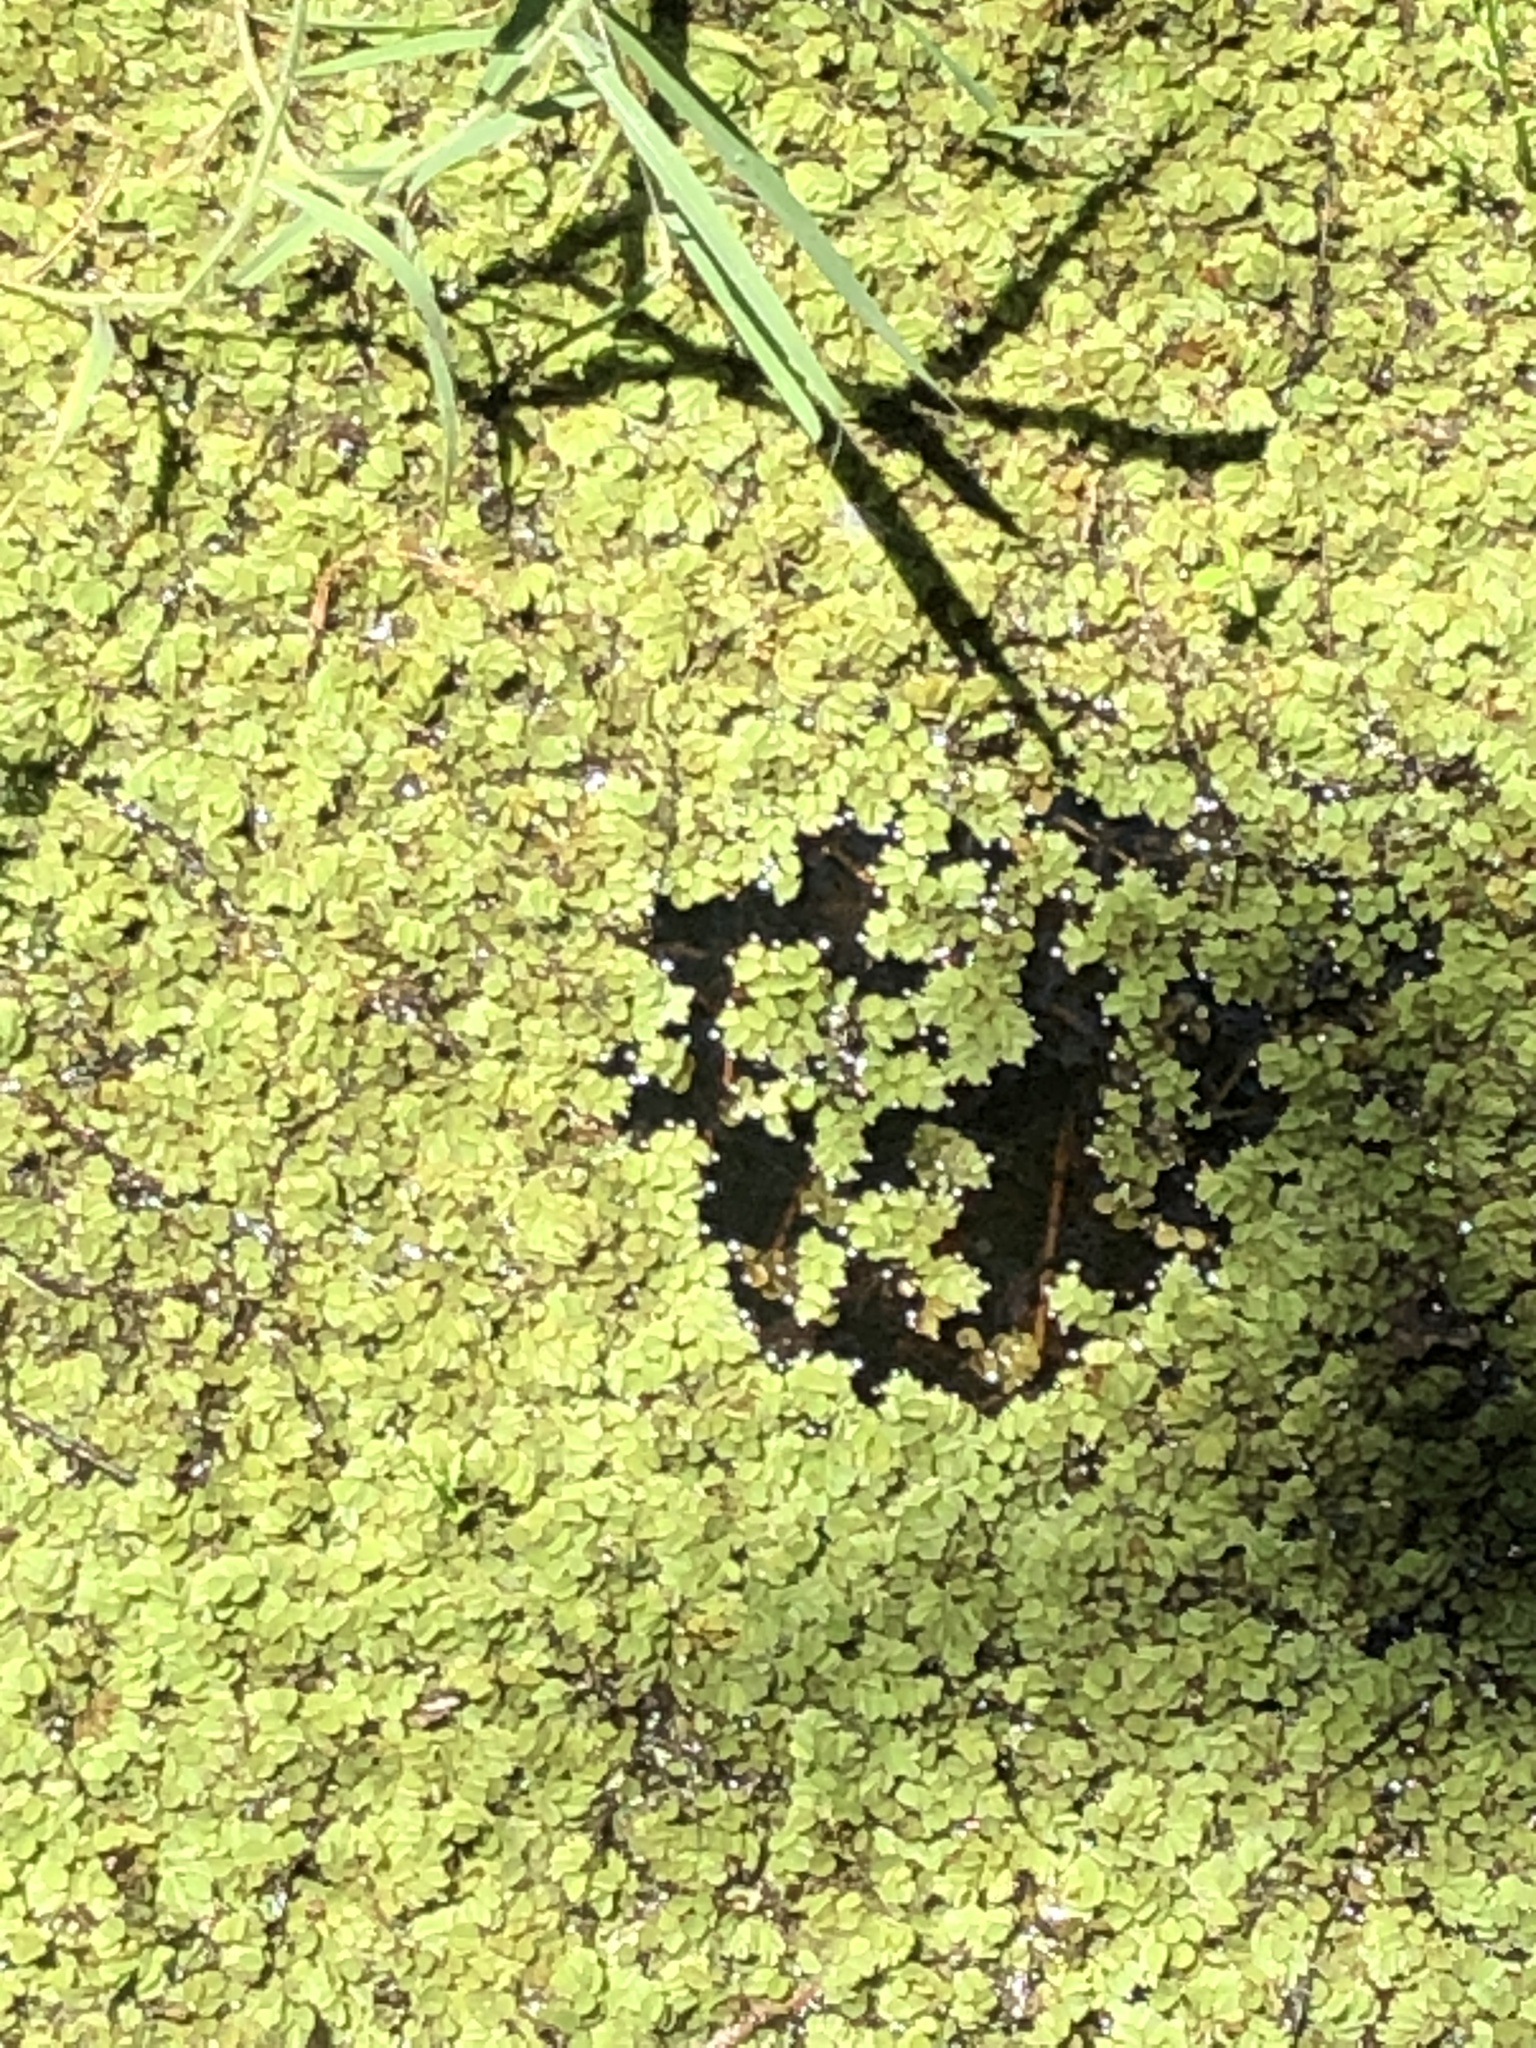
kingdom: Plantae
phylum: Tracheophyta
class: Polypodiopsida
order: Salviniales
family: Salviniaceae
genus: Salvinia
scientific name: Salvinia minima
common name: Water spangles
